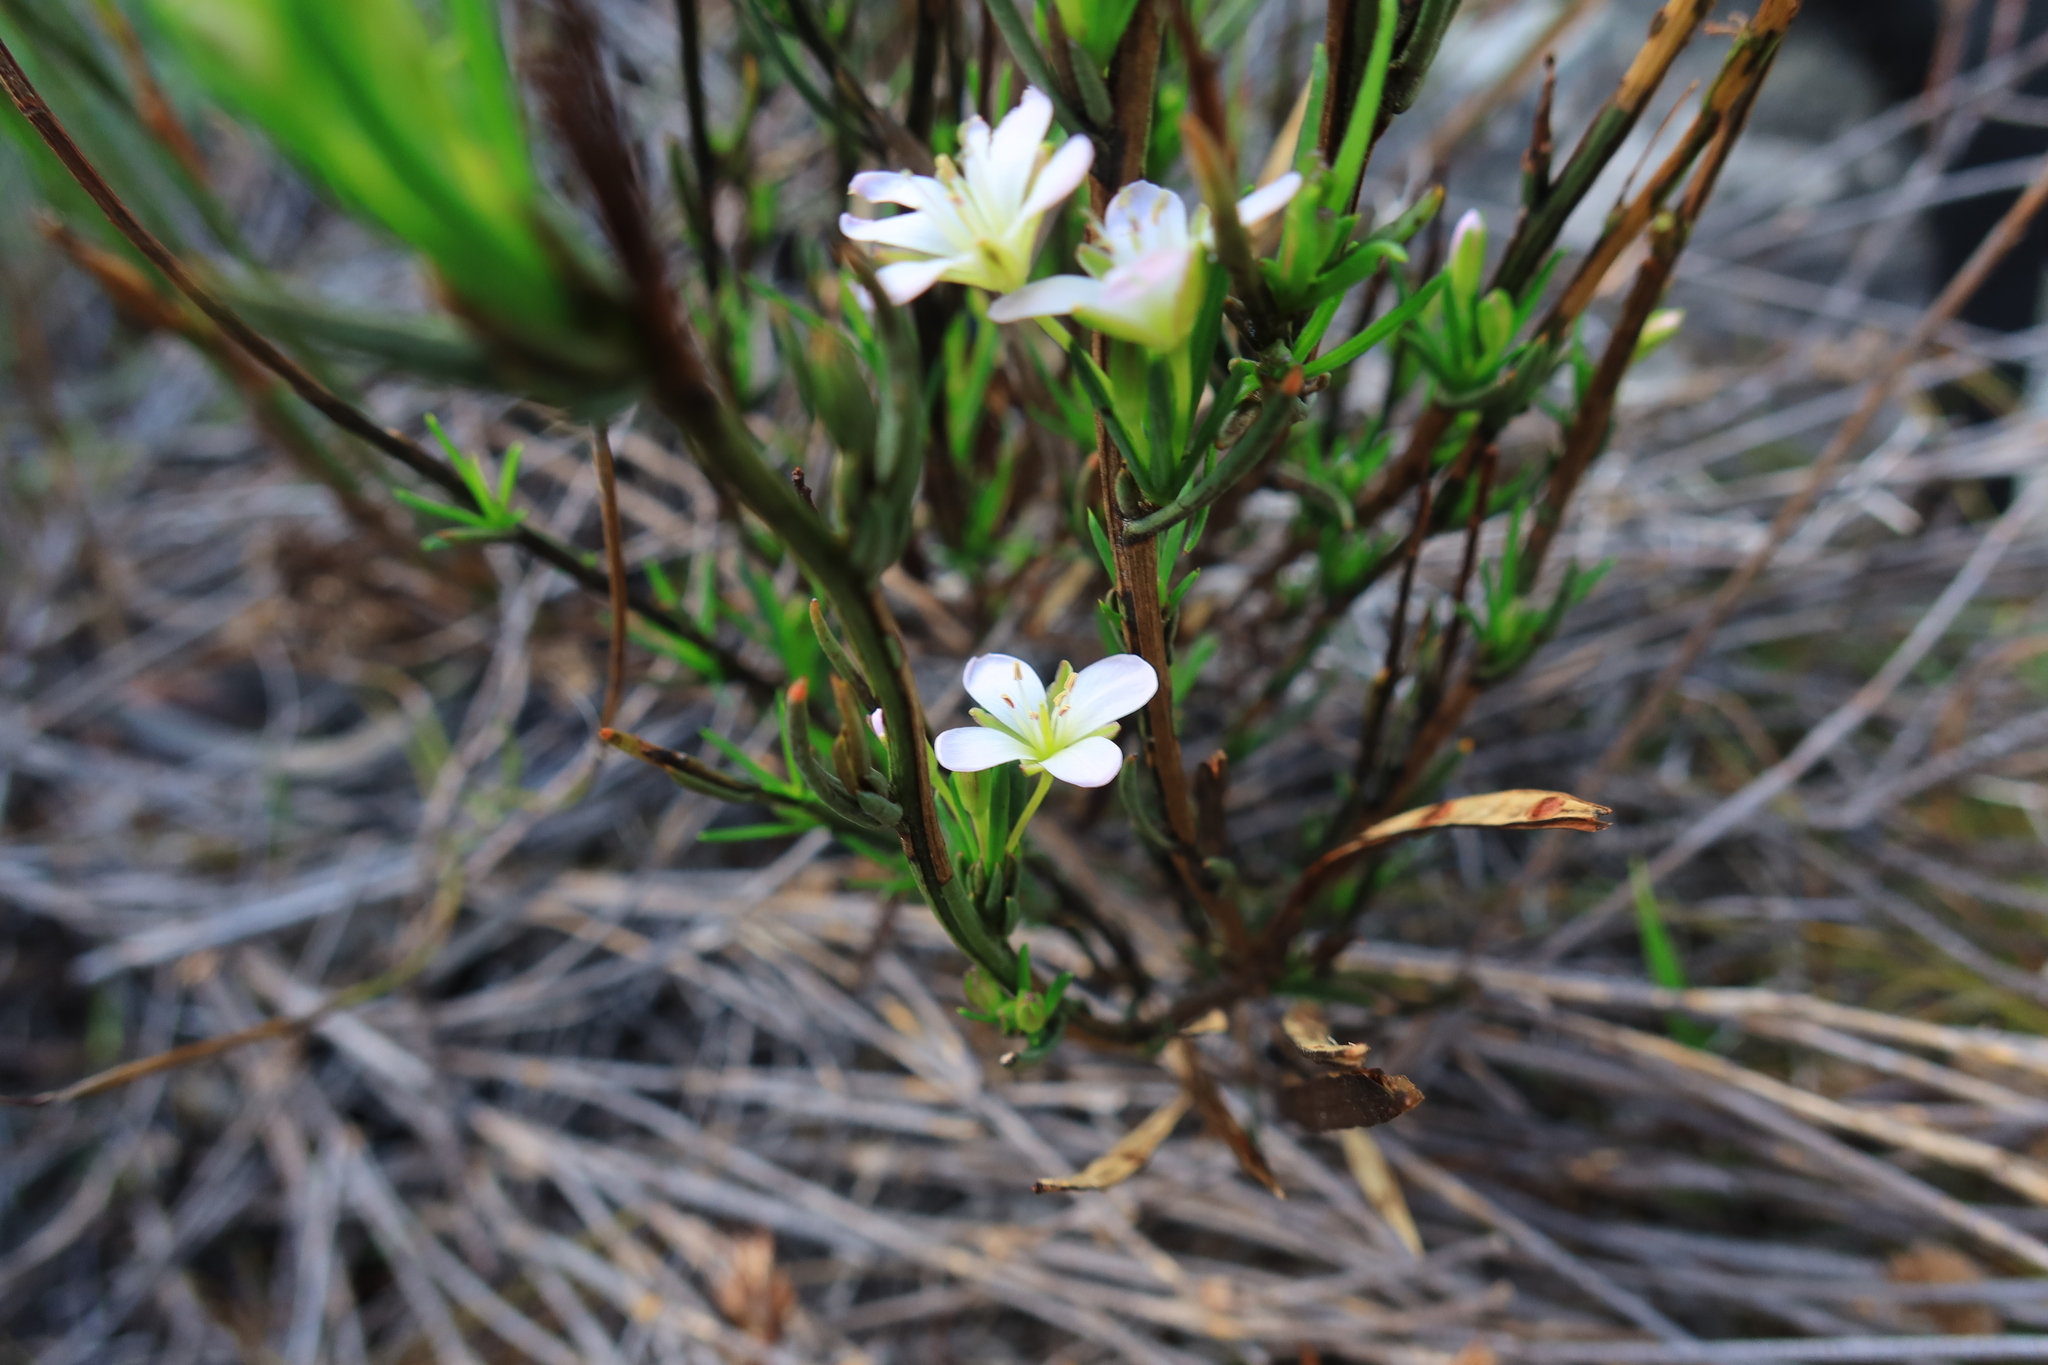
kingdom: Plantae
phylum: Tracheophyta
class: Magnoliopsida
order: Brassicales
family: Brassicaceae
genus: Heliophila
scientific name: Heliophila scoparia
